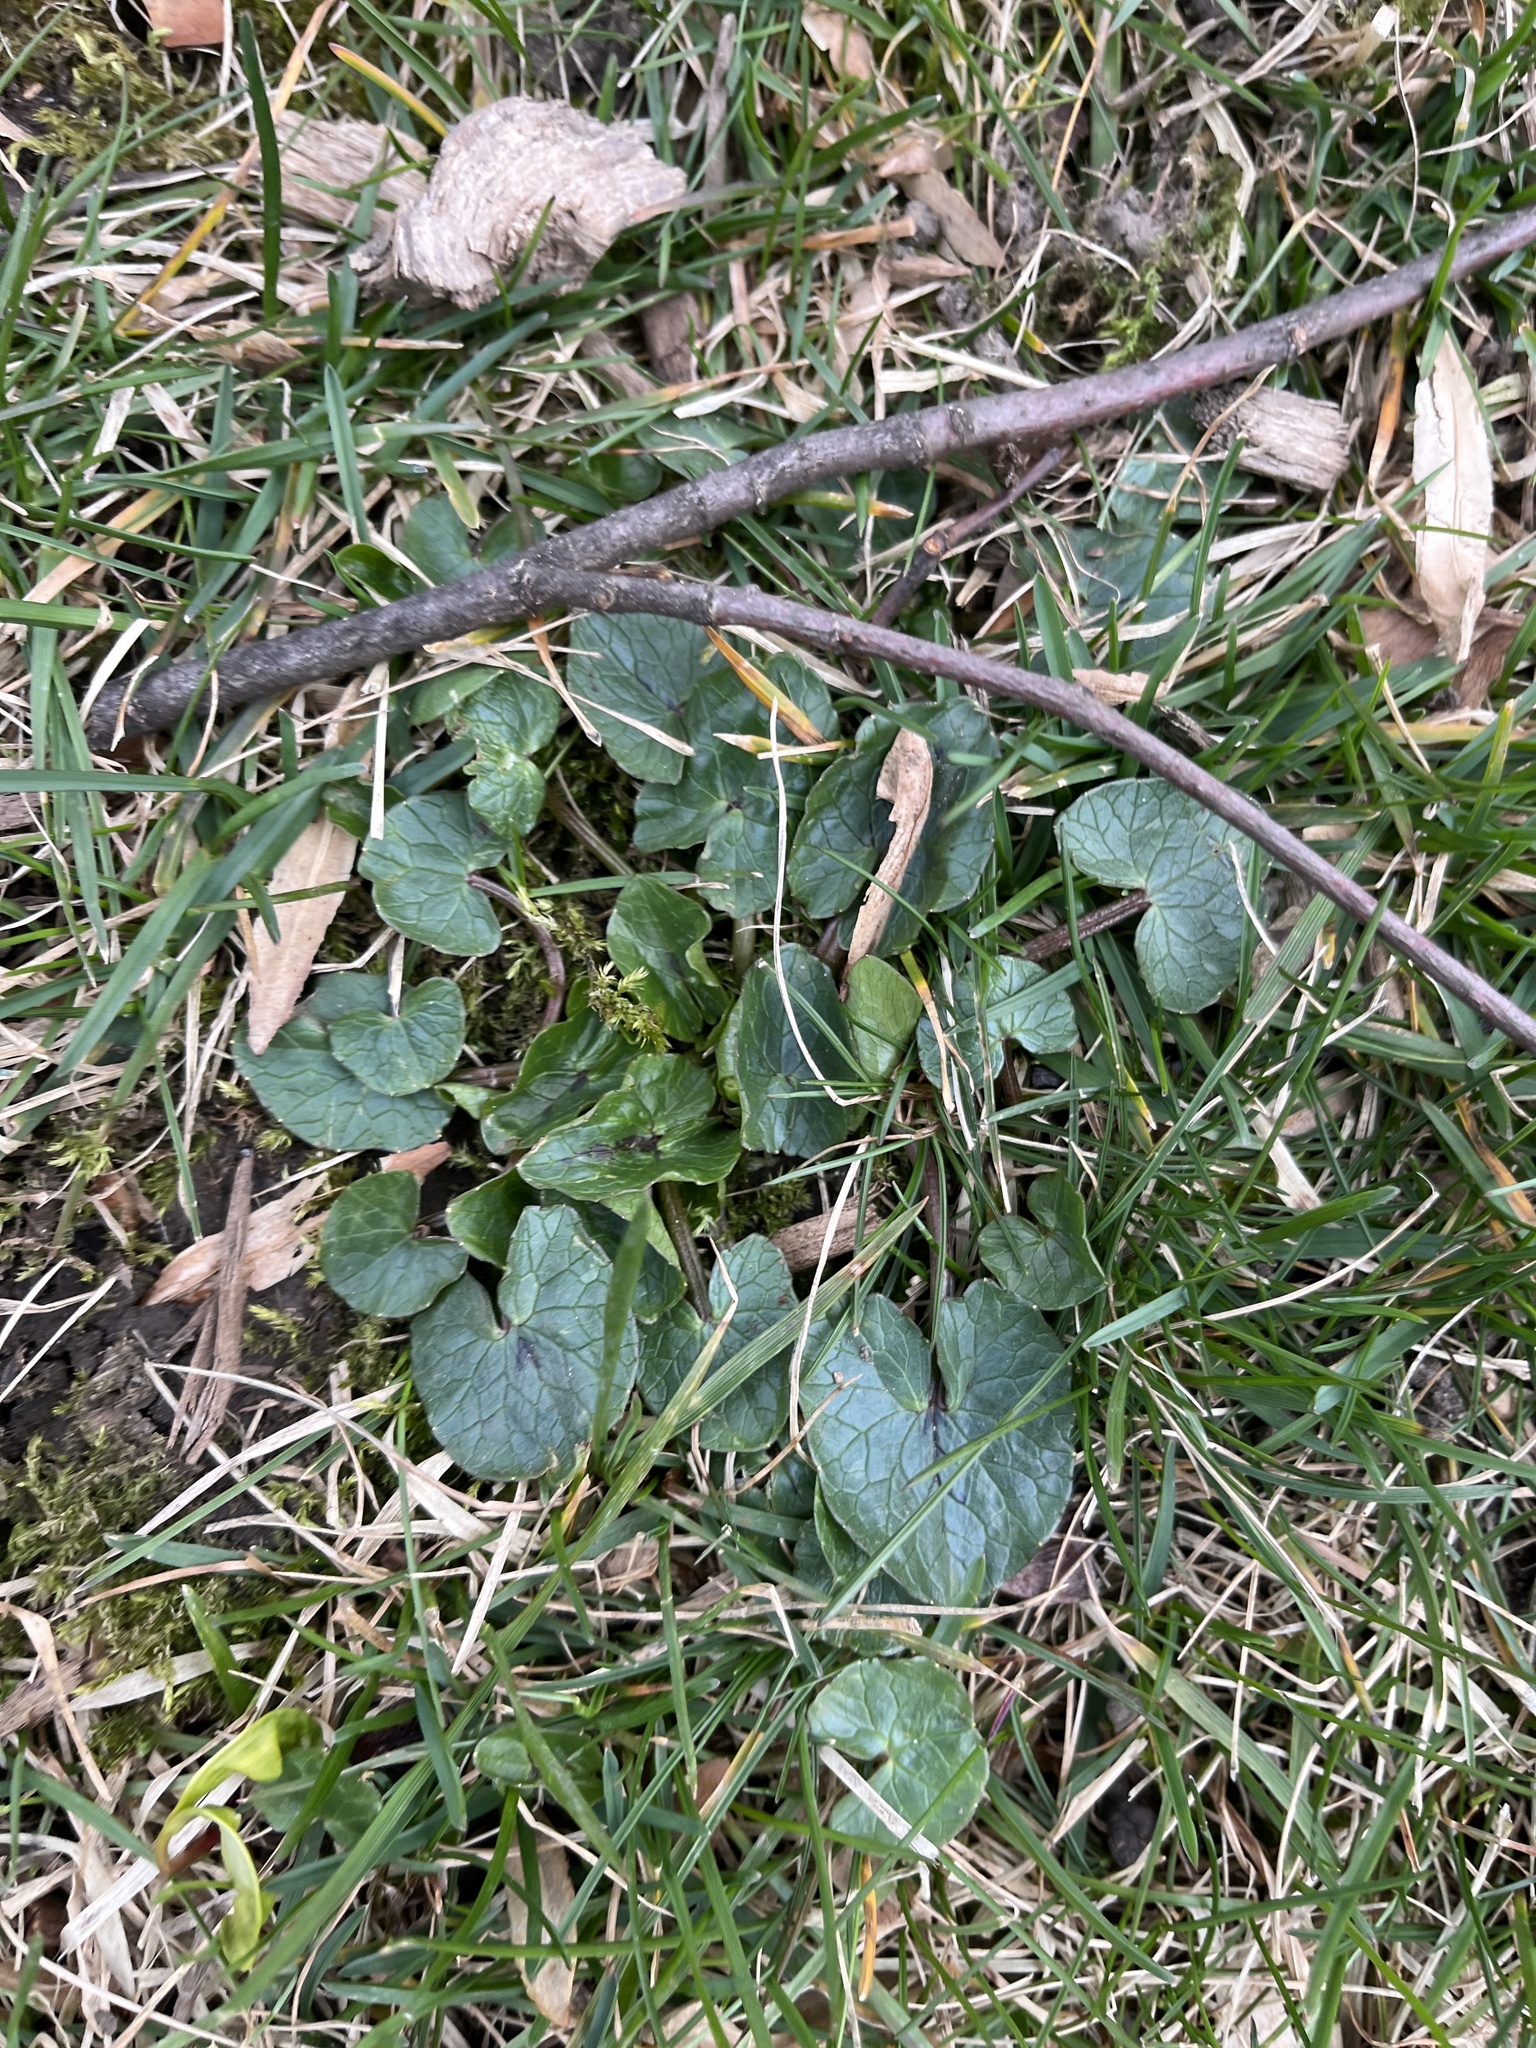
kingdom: Plantae
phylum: Tracheophyta
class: Magnoliopsida
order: Ranunculales
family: Ranunculaceae
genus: Ficaria
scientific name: Ficaria verna
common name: Lesser celandine
